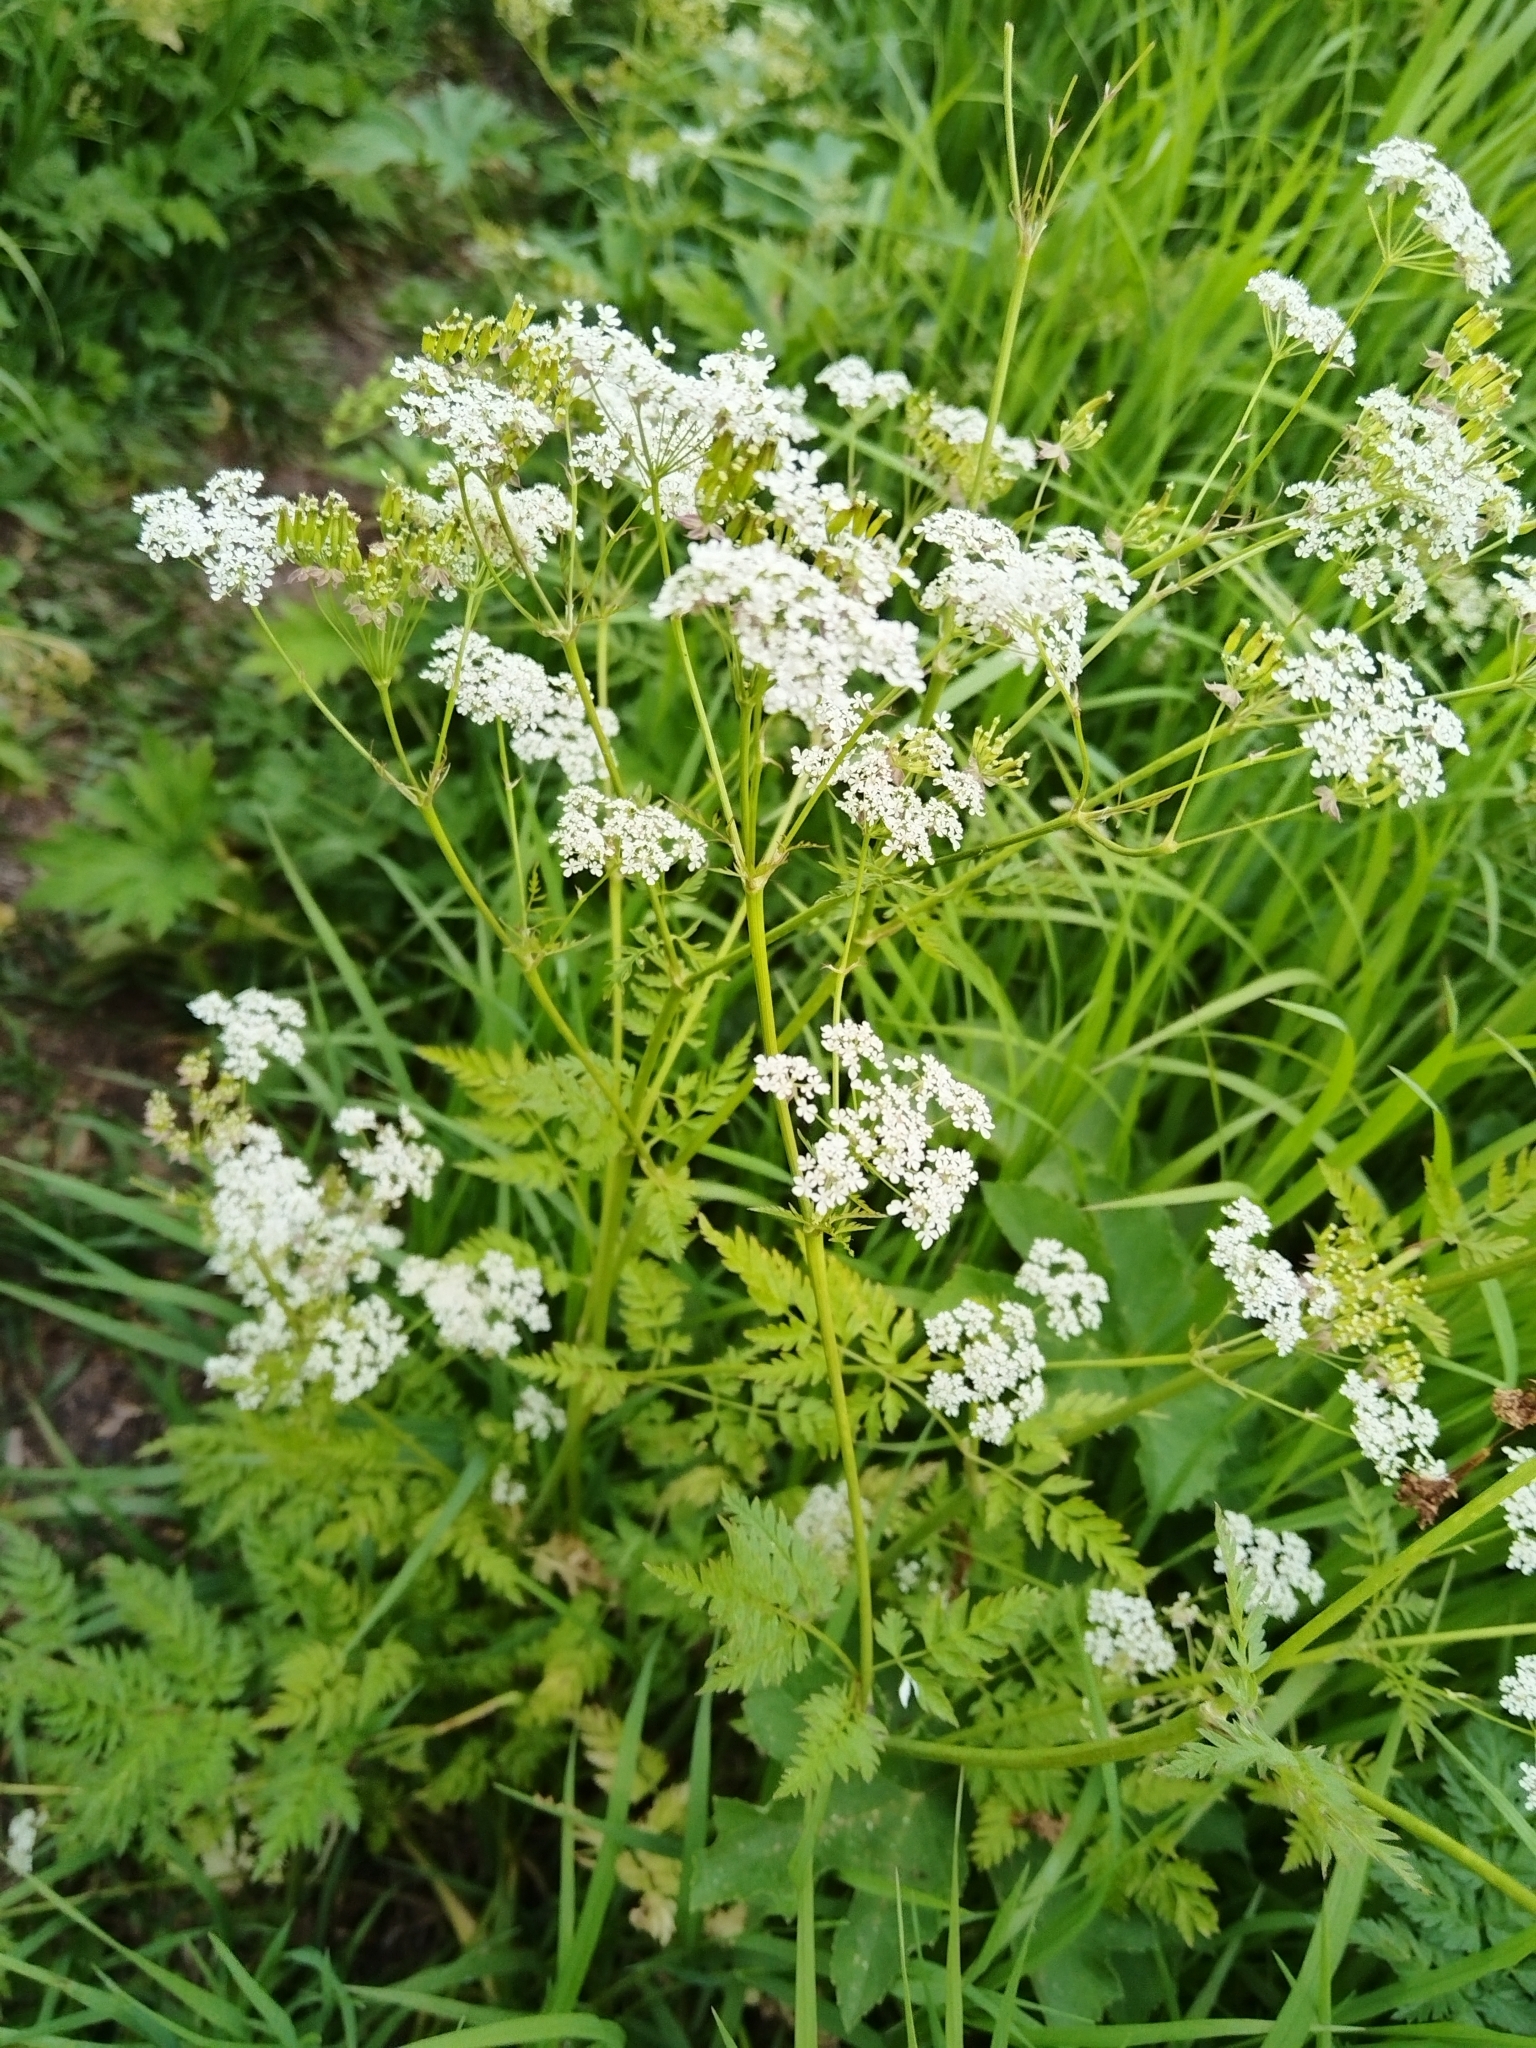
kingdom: Plantae
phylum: Tracheophyta
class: Magnoliopsida
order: Apiales
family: Apiaceae
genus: Anthriscus
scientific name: Anthriscus sylvestris
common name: Cow parsley
